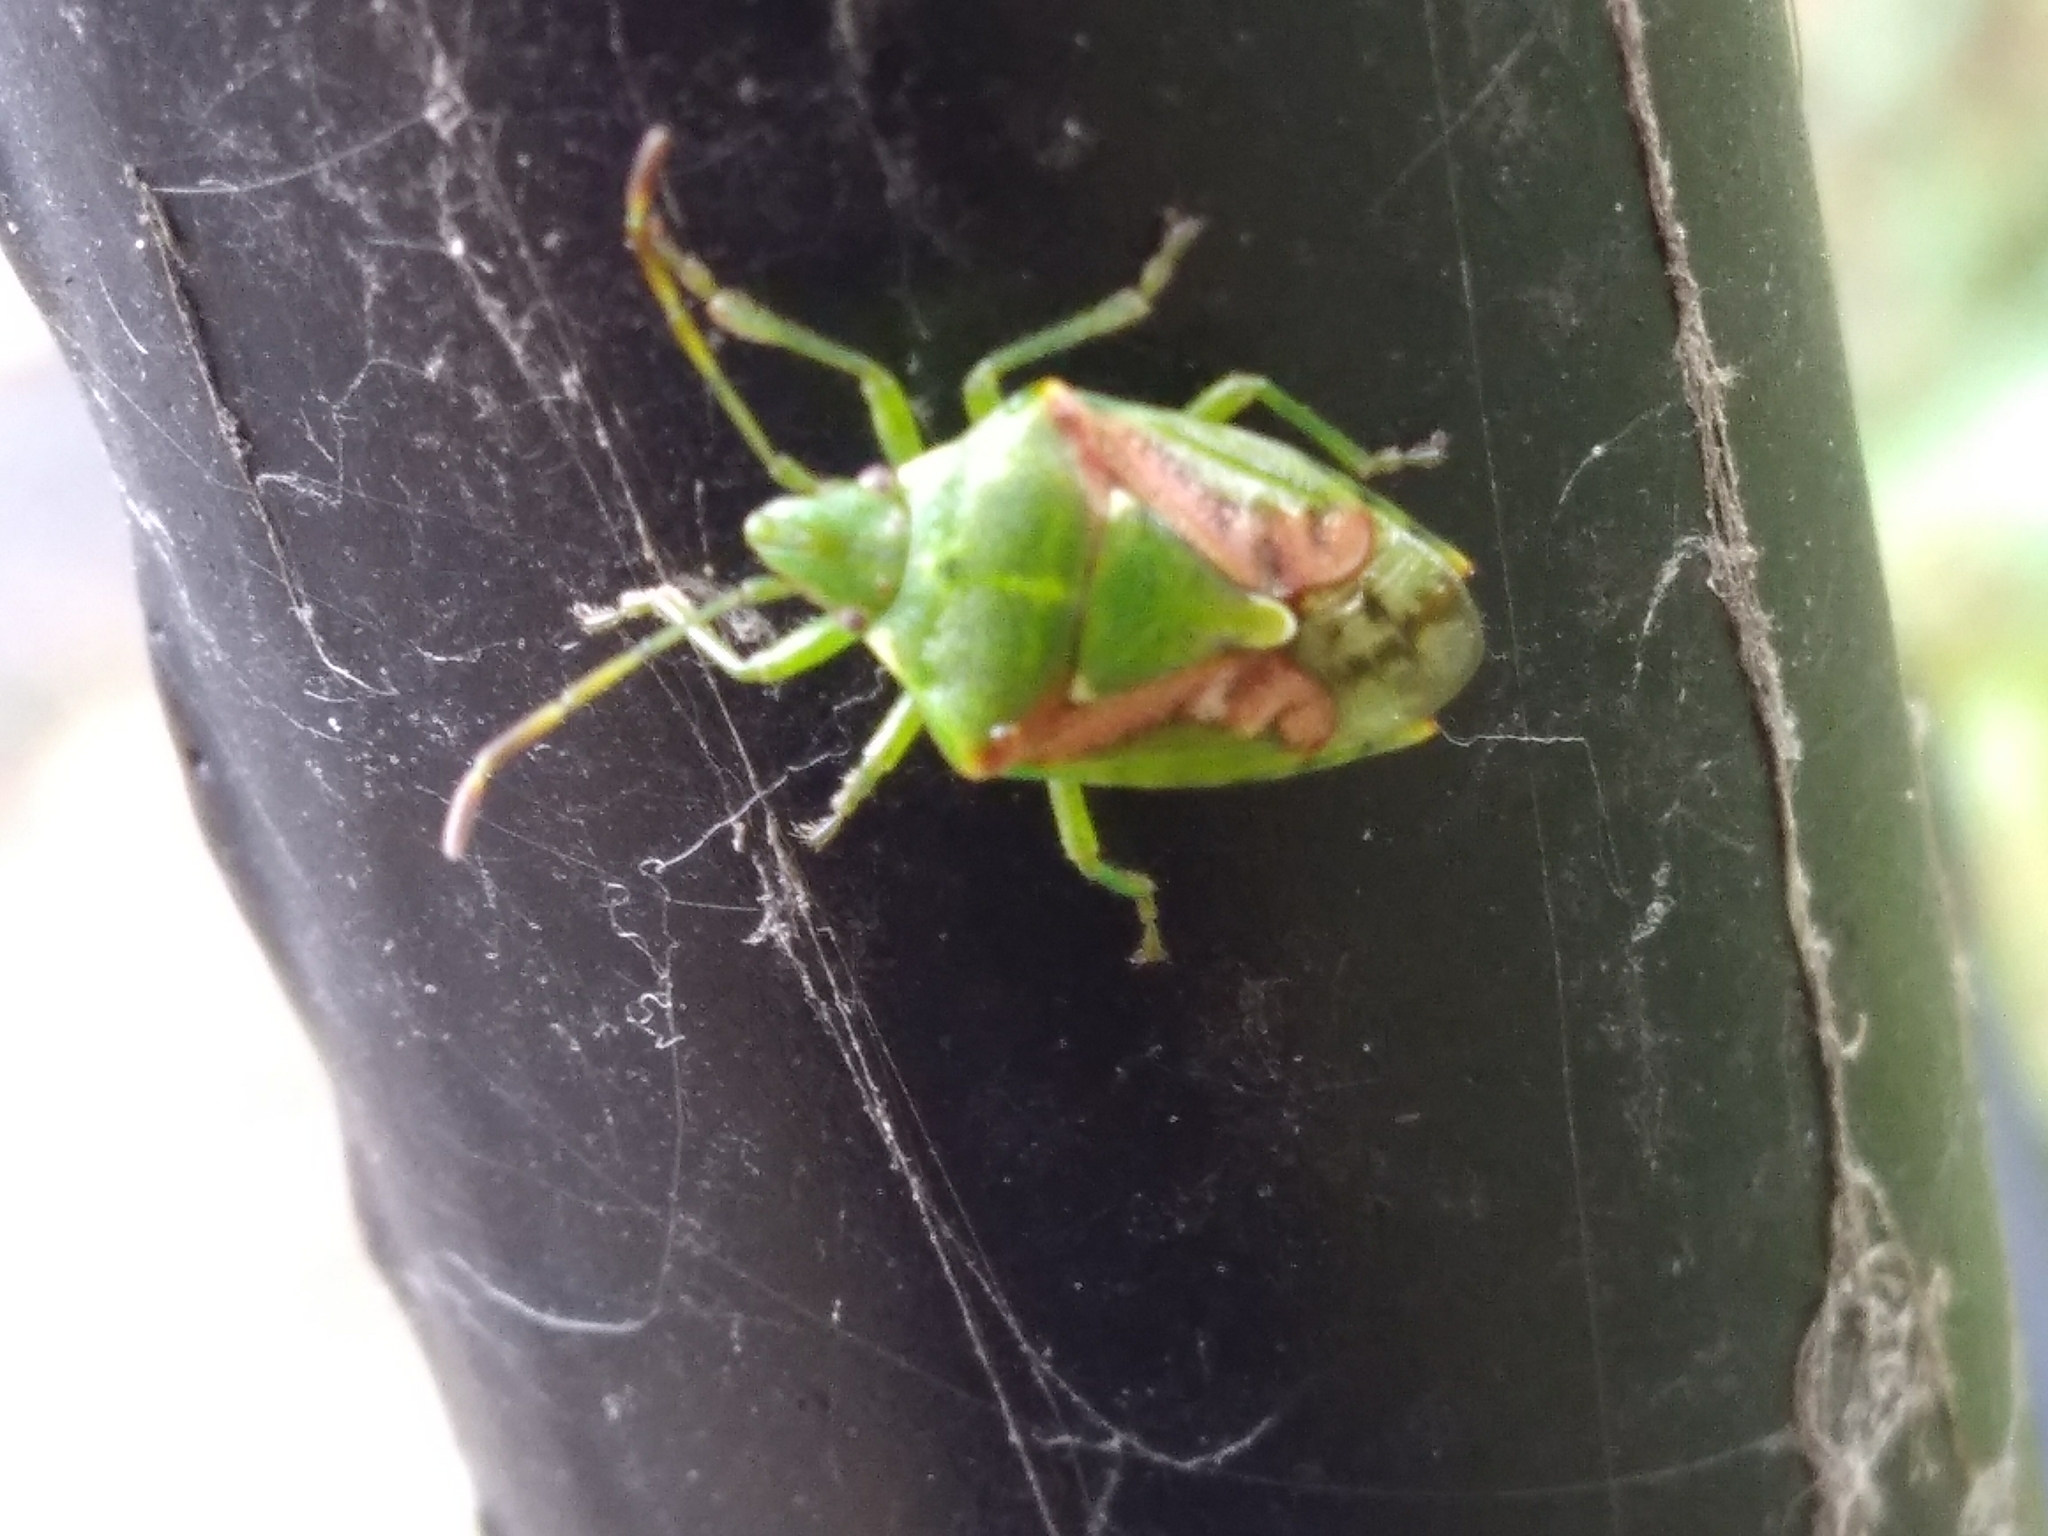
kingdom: Animalia
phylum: Arthropoda
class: Insecta
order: Hemiptera
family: Acanthosomatidae
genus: Cyphostethus
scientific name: Cyphostethus tristriatus
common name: Juniper shieldbug
